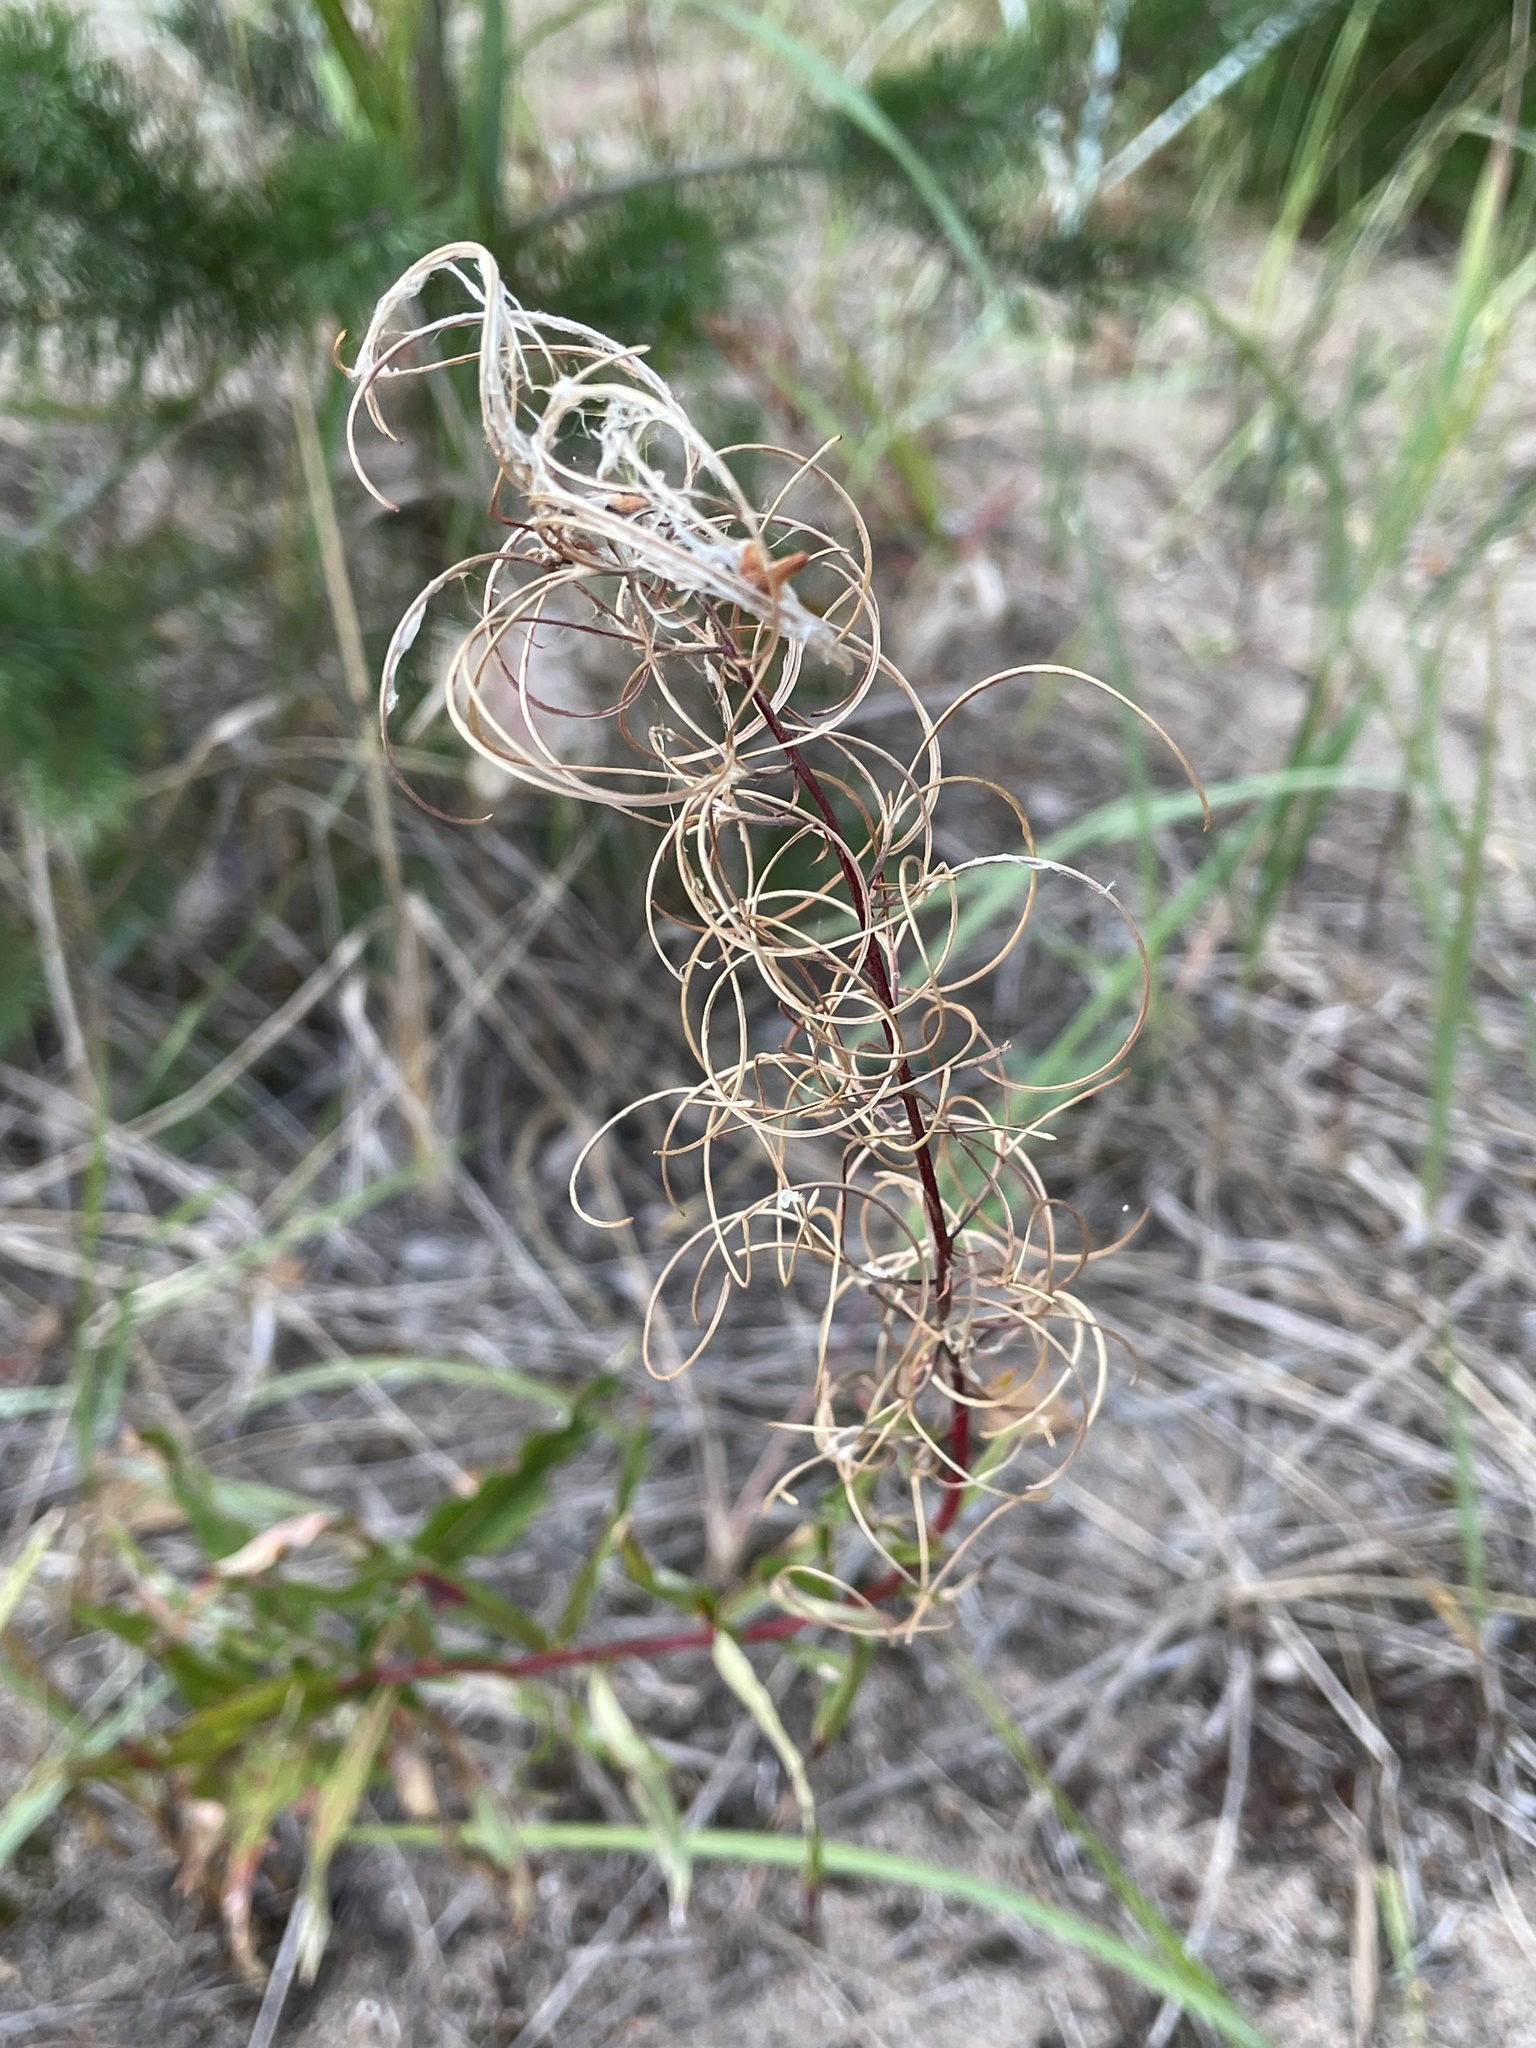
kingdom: Plantae
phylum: Tracheophyta
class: Magnoliopsida
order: Myrtales
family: Onagraceae
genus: Chamaenerion
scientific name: Chamaenerion angustifolium
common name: Fireweed
